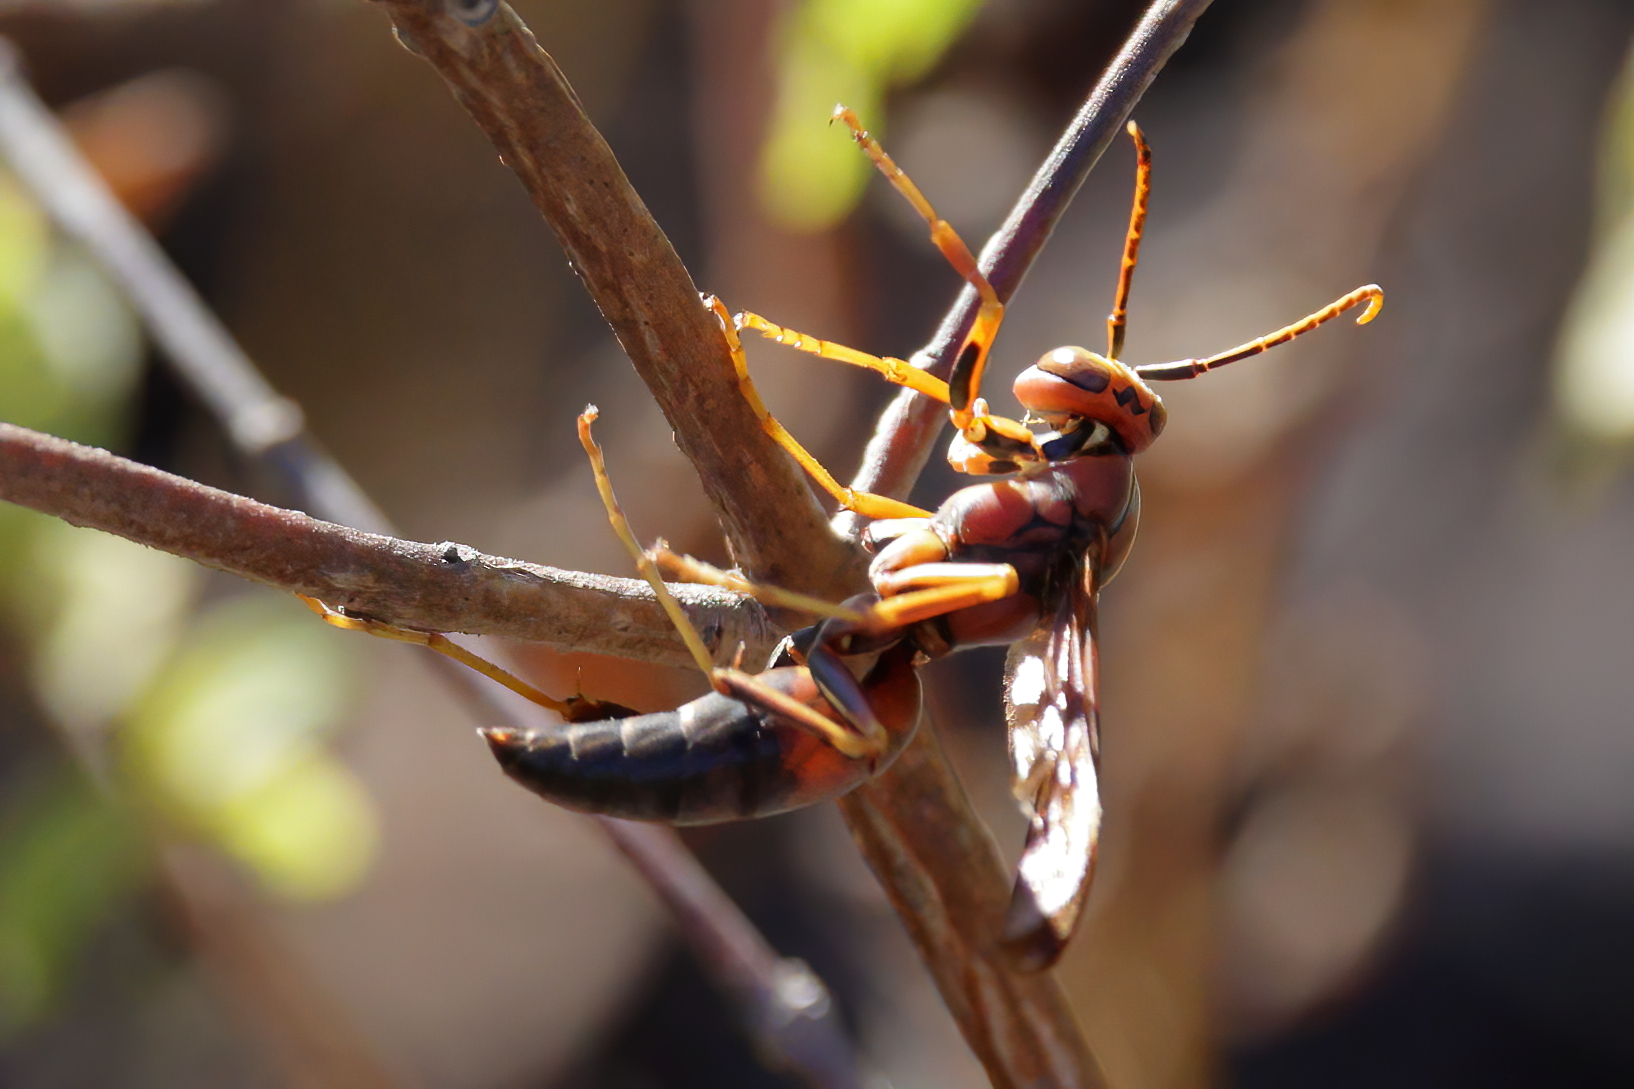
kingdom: Animalia
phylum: Arthropoda
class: Insecta
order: Hymenoptera
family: Eumenidae
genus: Polistes
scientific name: Polistes metricus
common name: Metric paper wasp
